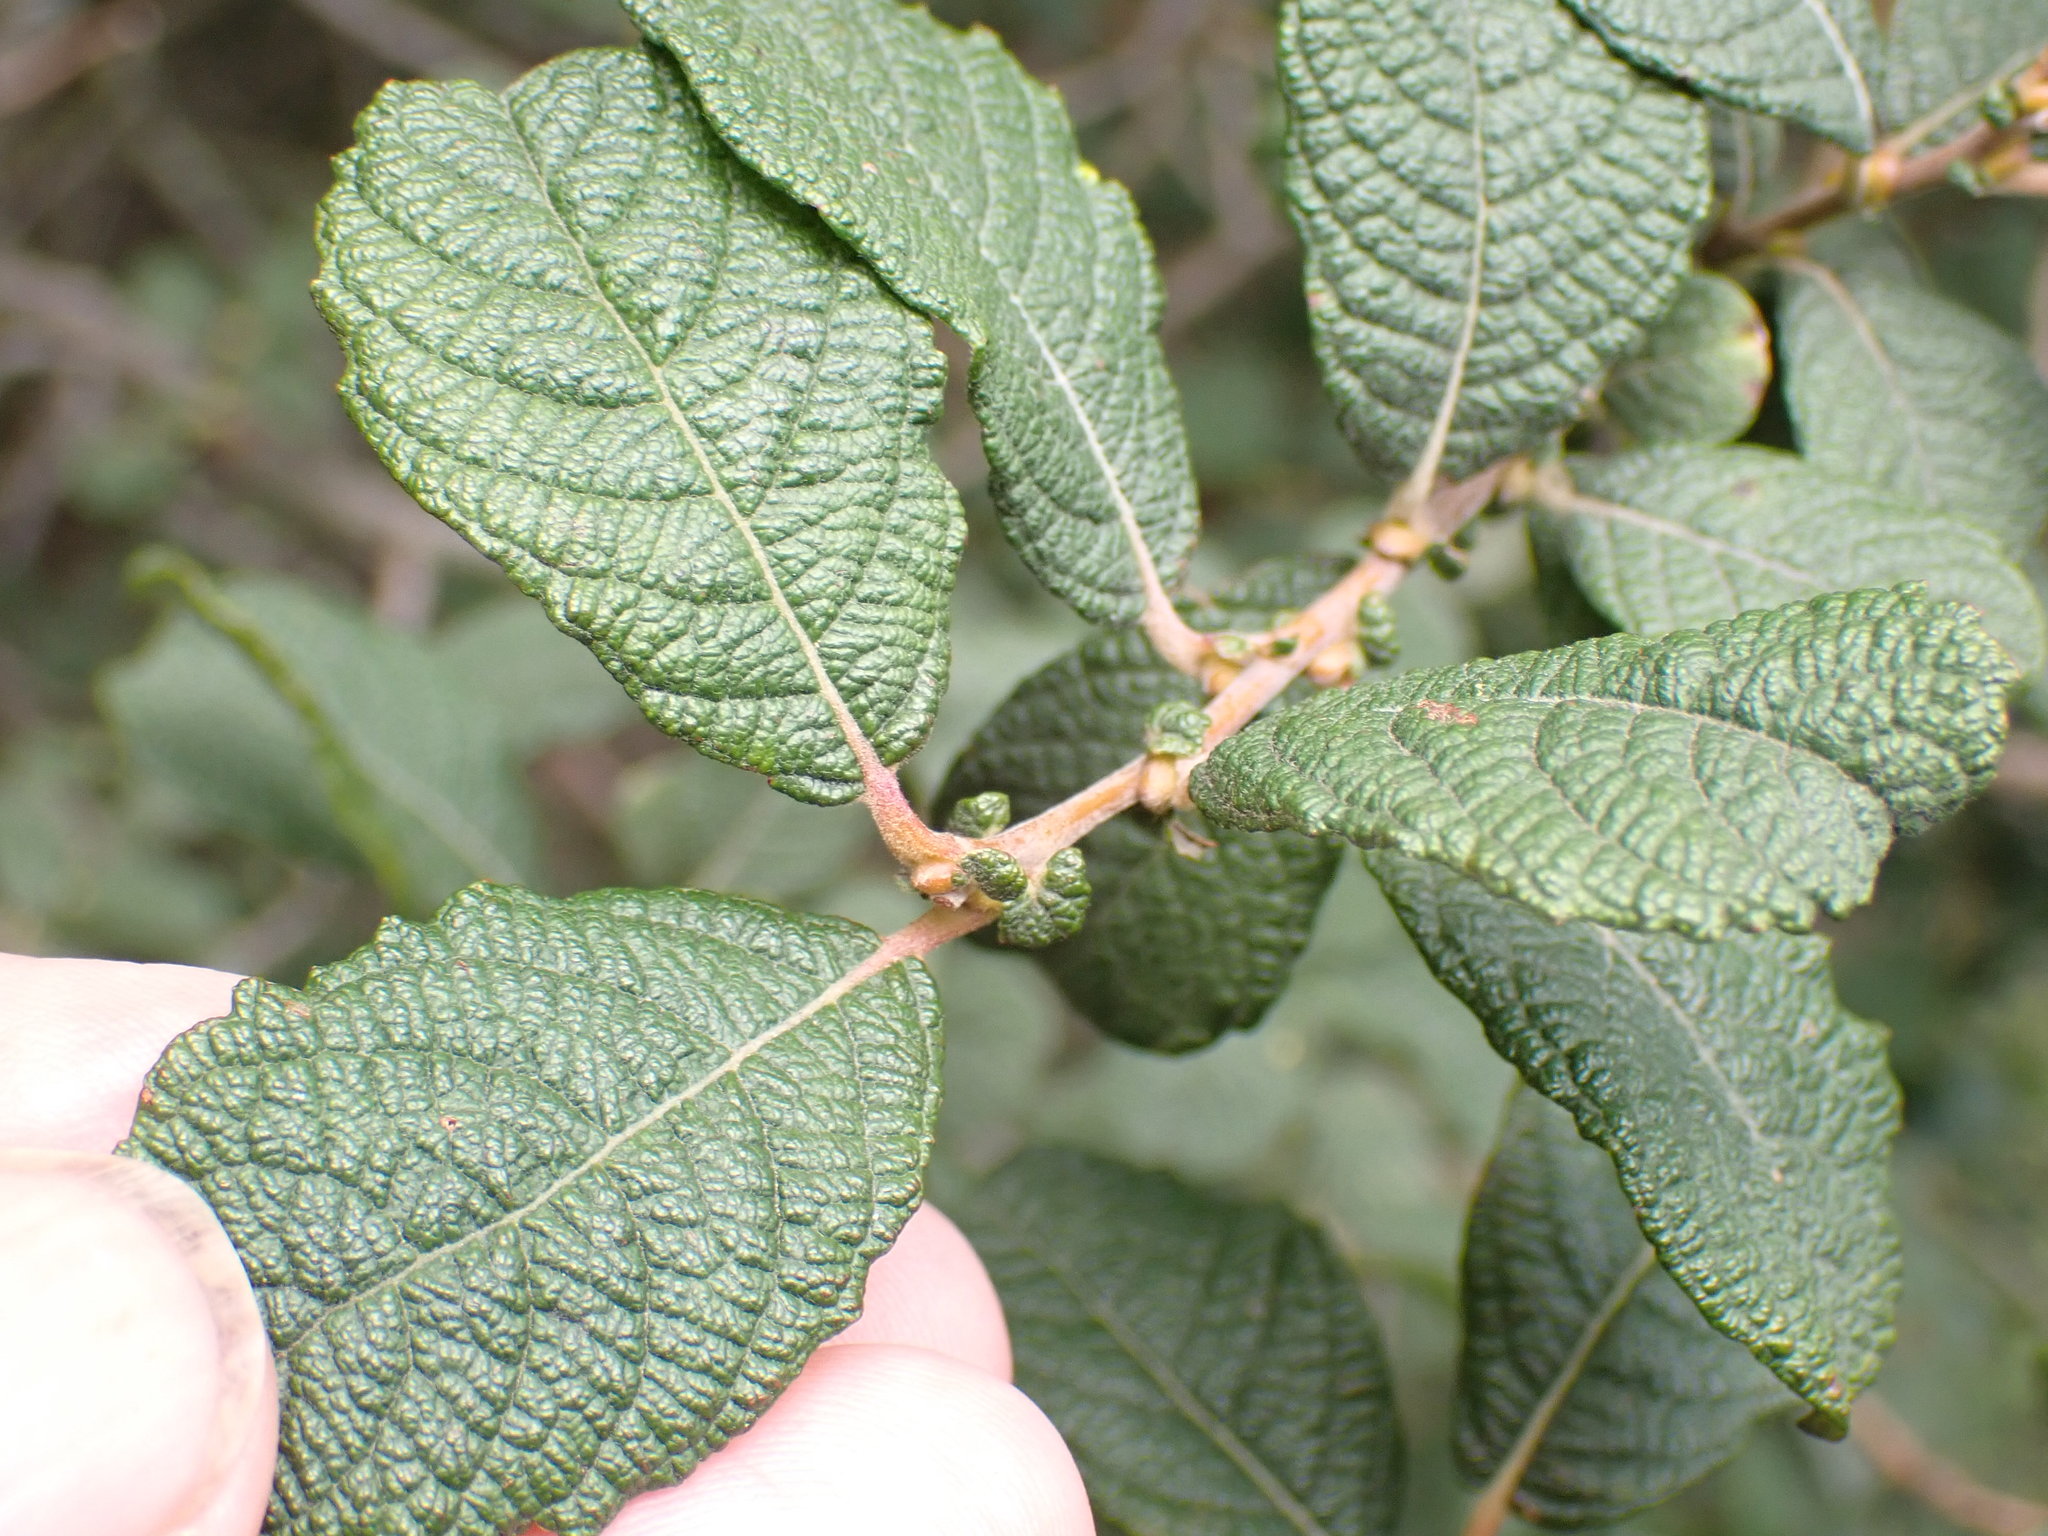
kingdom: Plantae
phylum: Tracheophyta
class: Magnoliopsida
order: Malpighiales
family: Salicaceae
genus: Salix
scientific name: Salix aurita
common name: Eared willow
